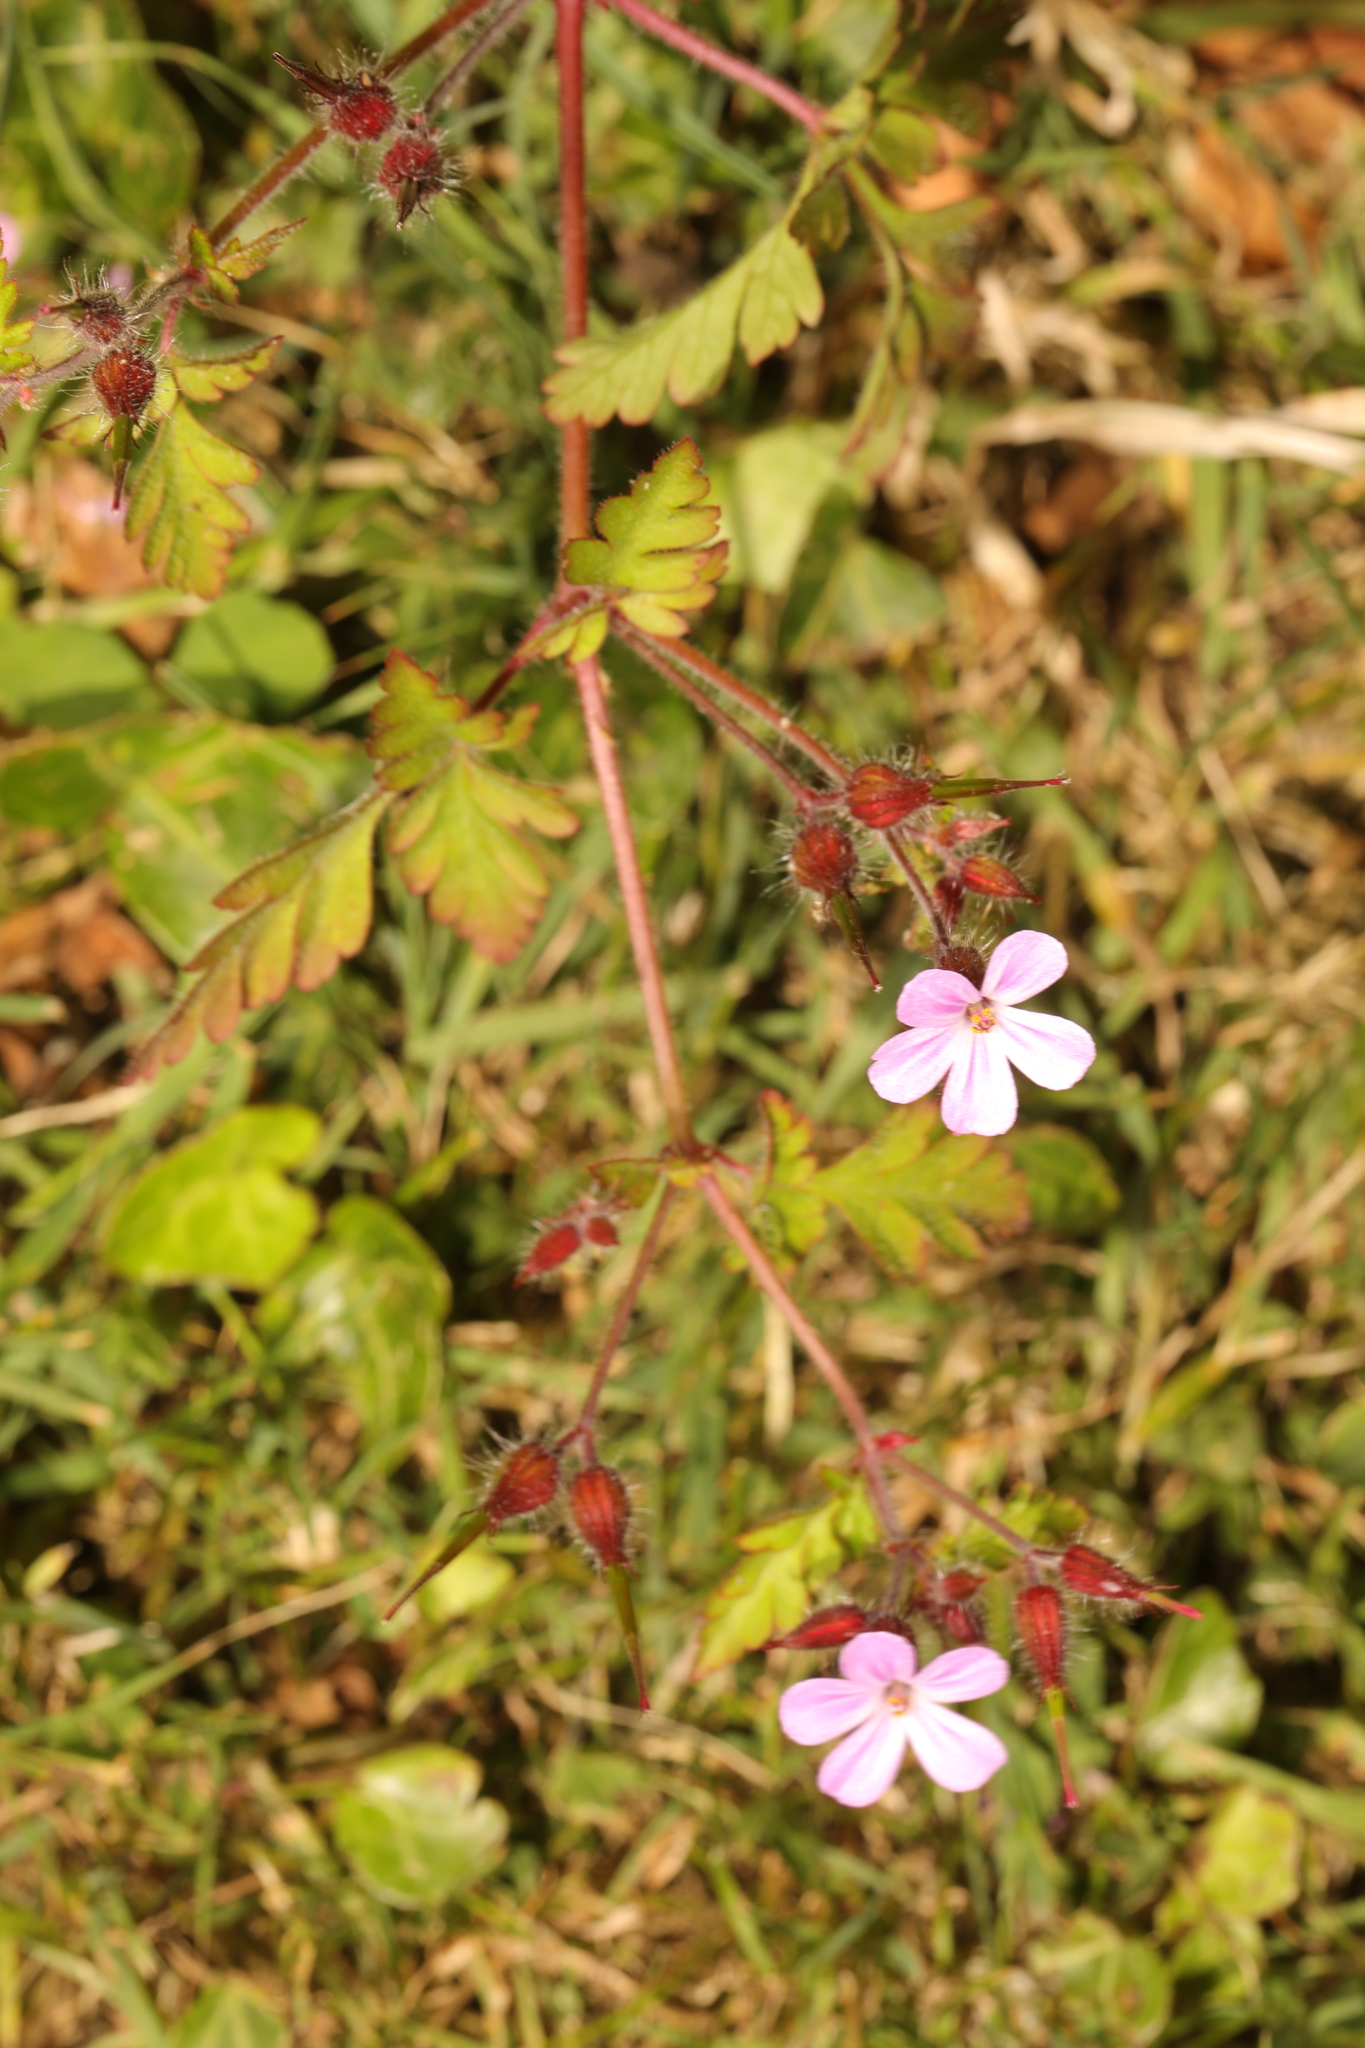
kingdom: Plantae
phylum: Tracheophyta
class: Magnoliopsida
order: Geraniales
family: Geraniaceae
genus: Geranium
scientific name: Geranium robertianum
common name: Herb-robert
